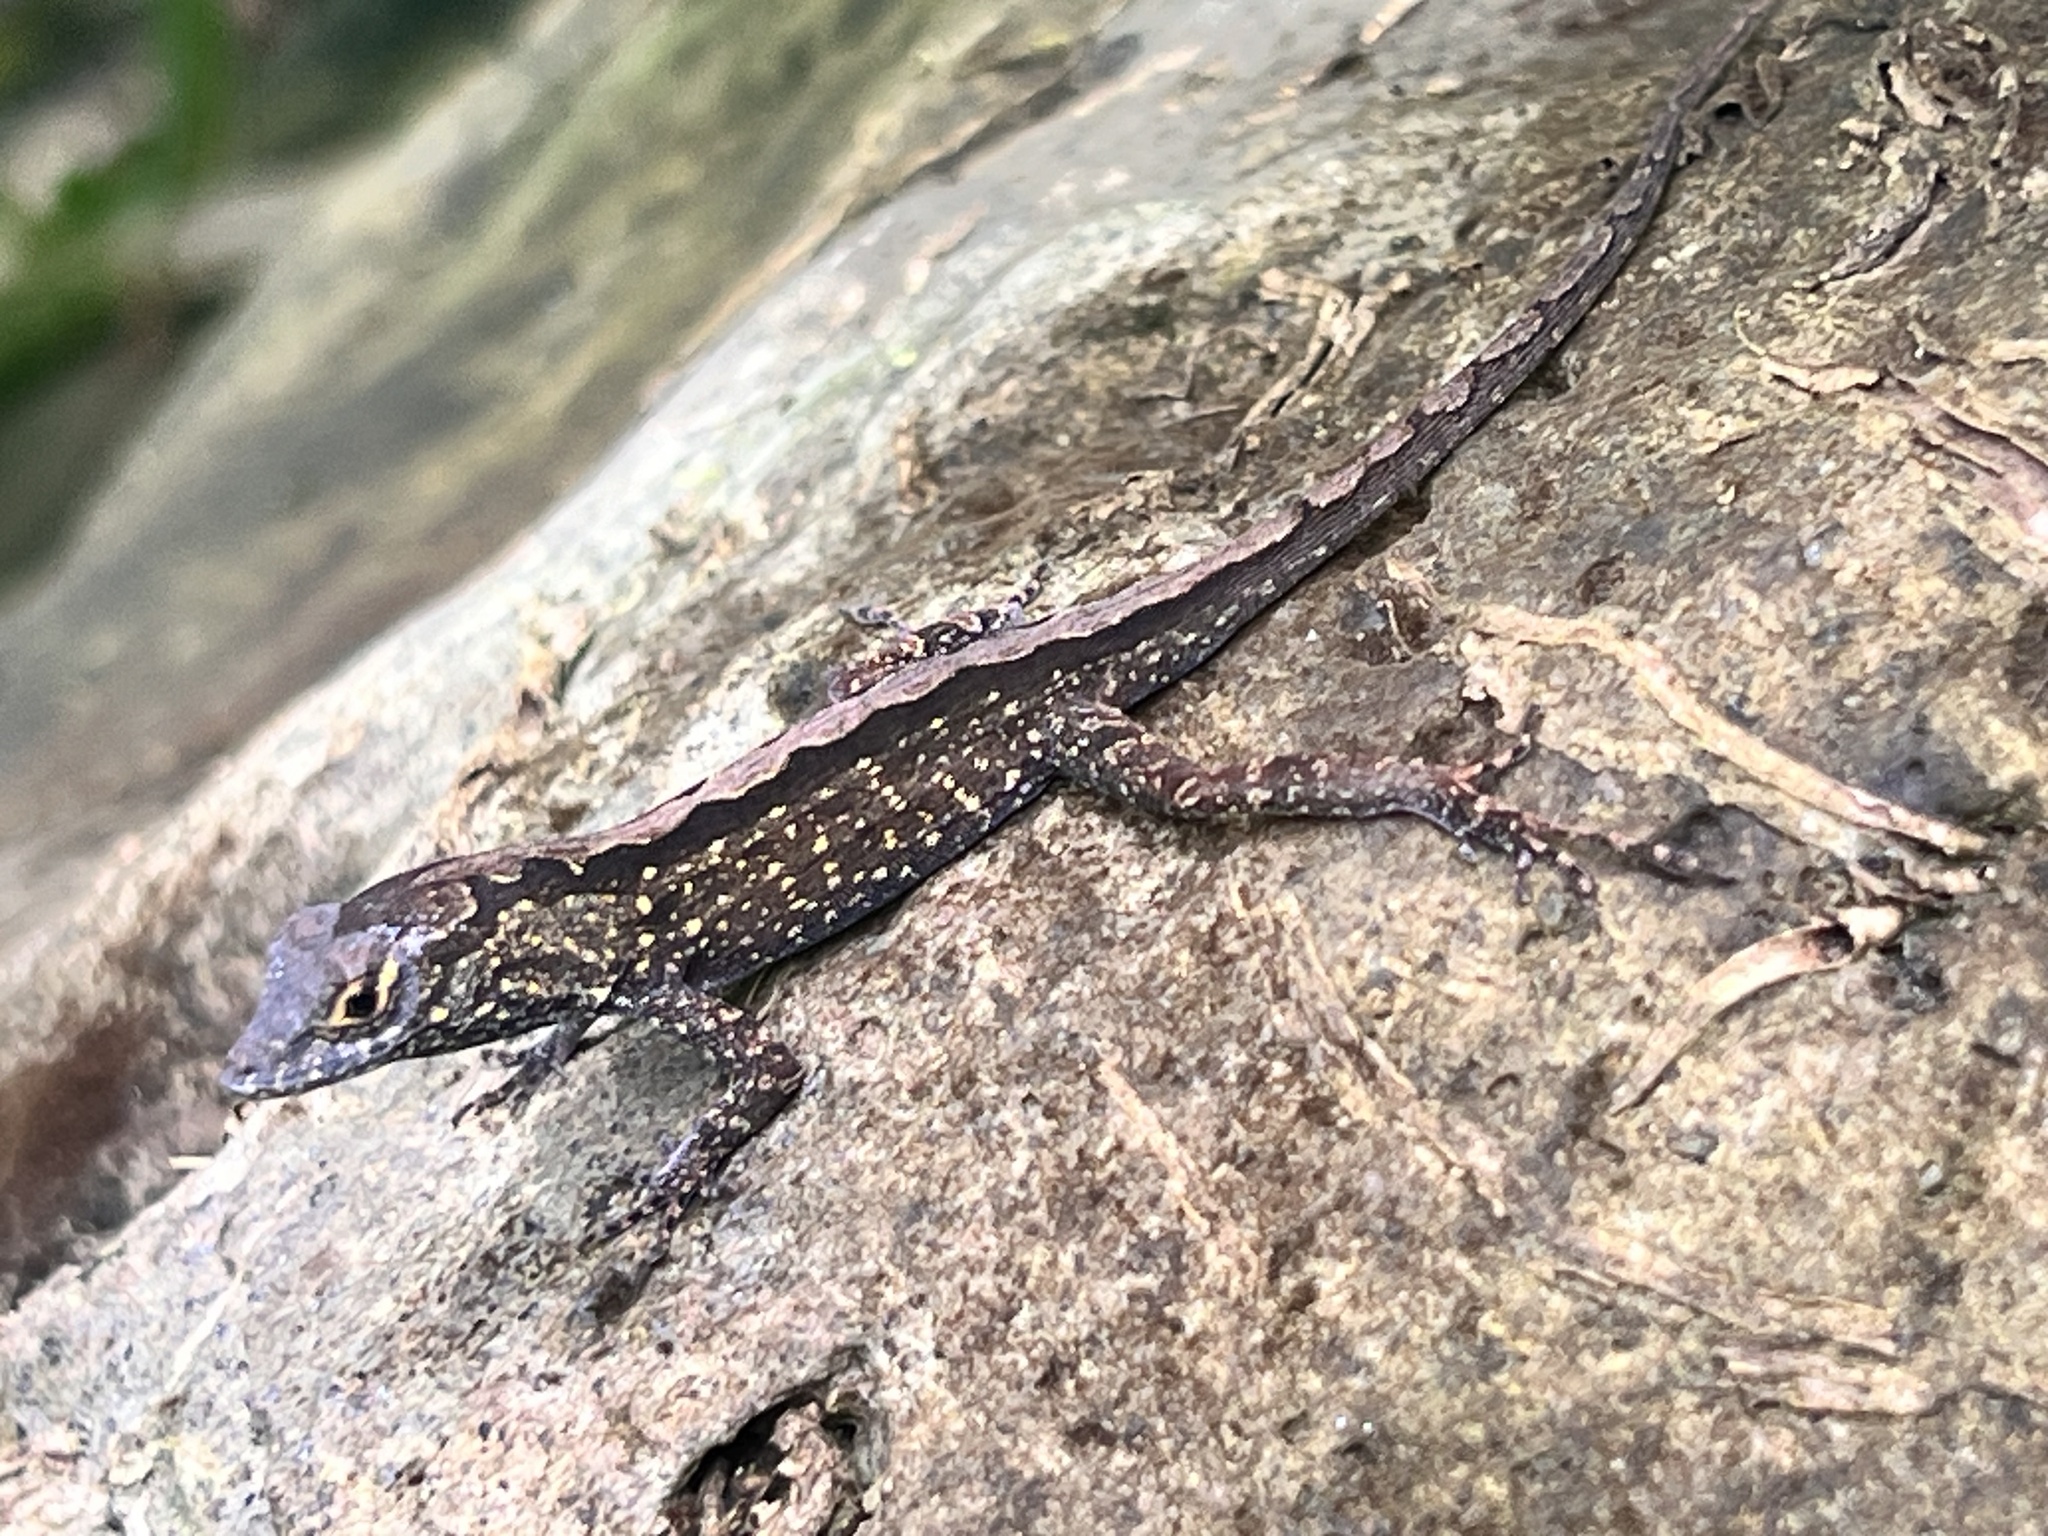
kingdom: Animalia
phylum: Chordata
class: Squamata
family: Dactyloidae
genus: Anolis
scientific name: Anolis sagrei
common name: Brown anole
